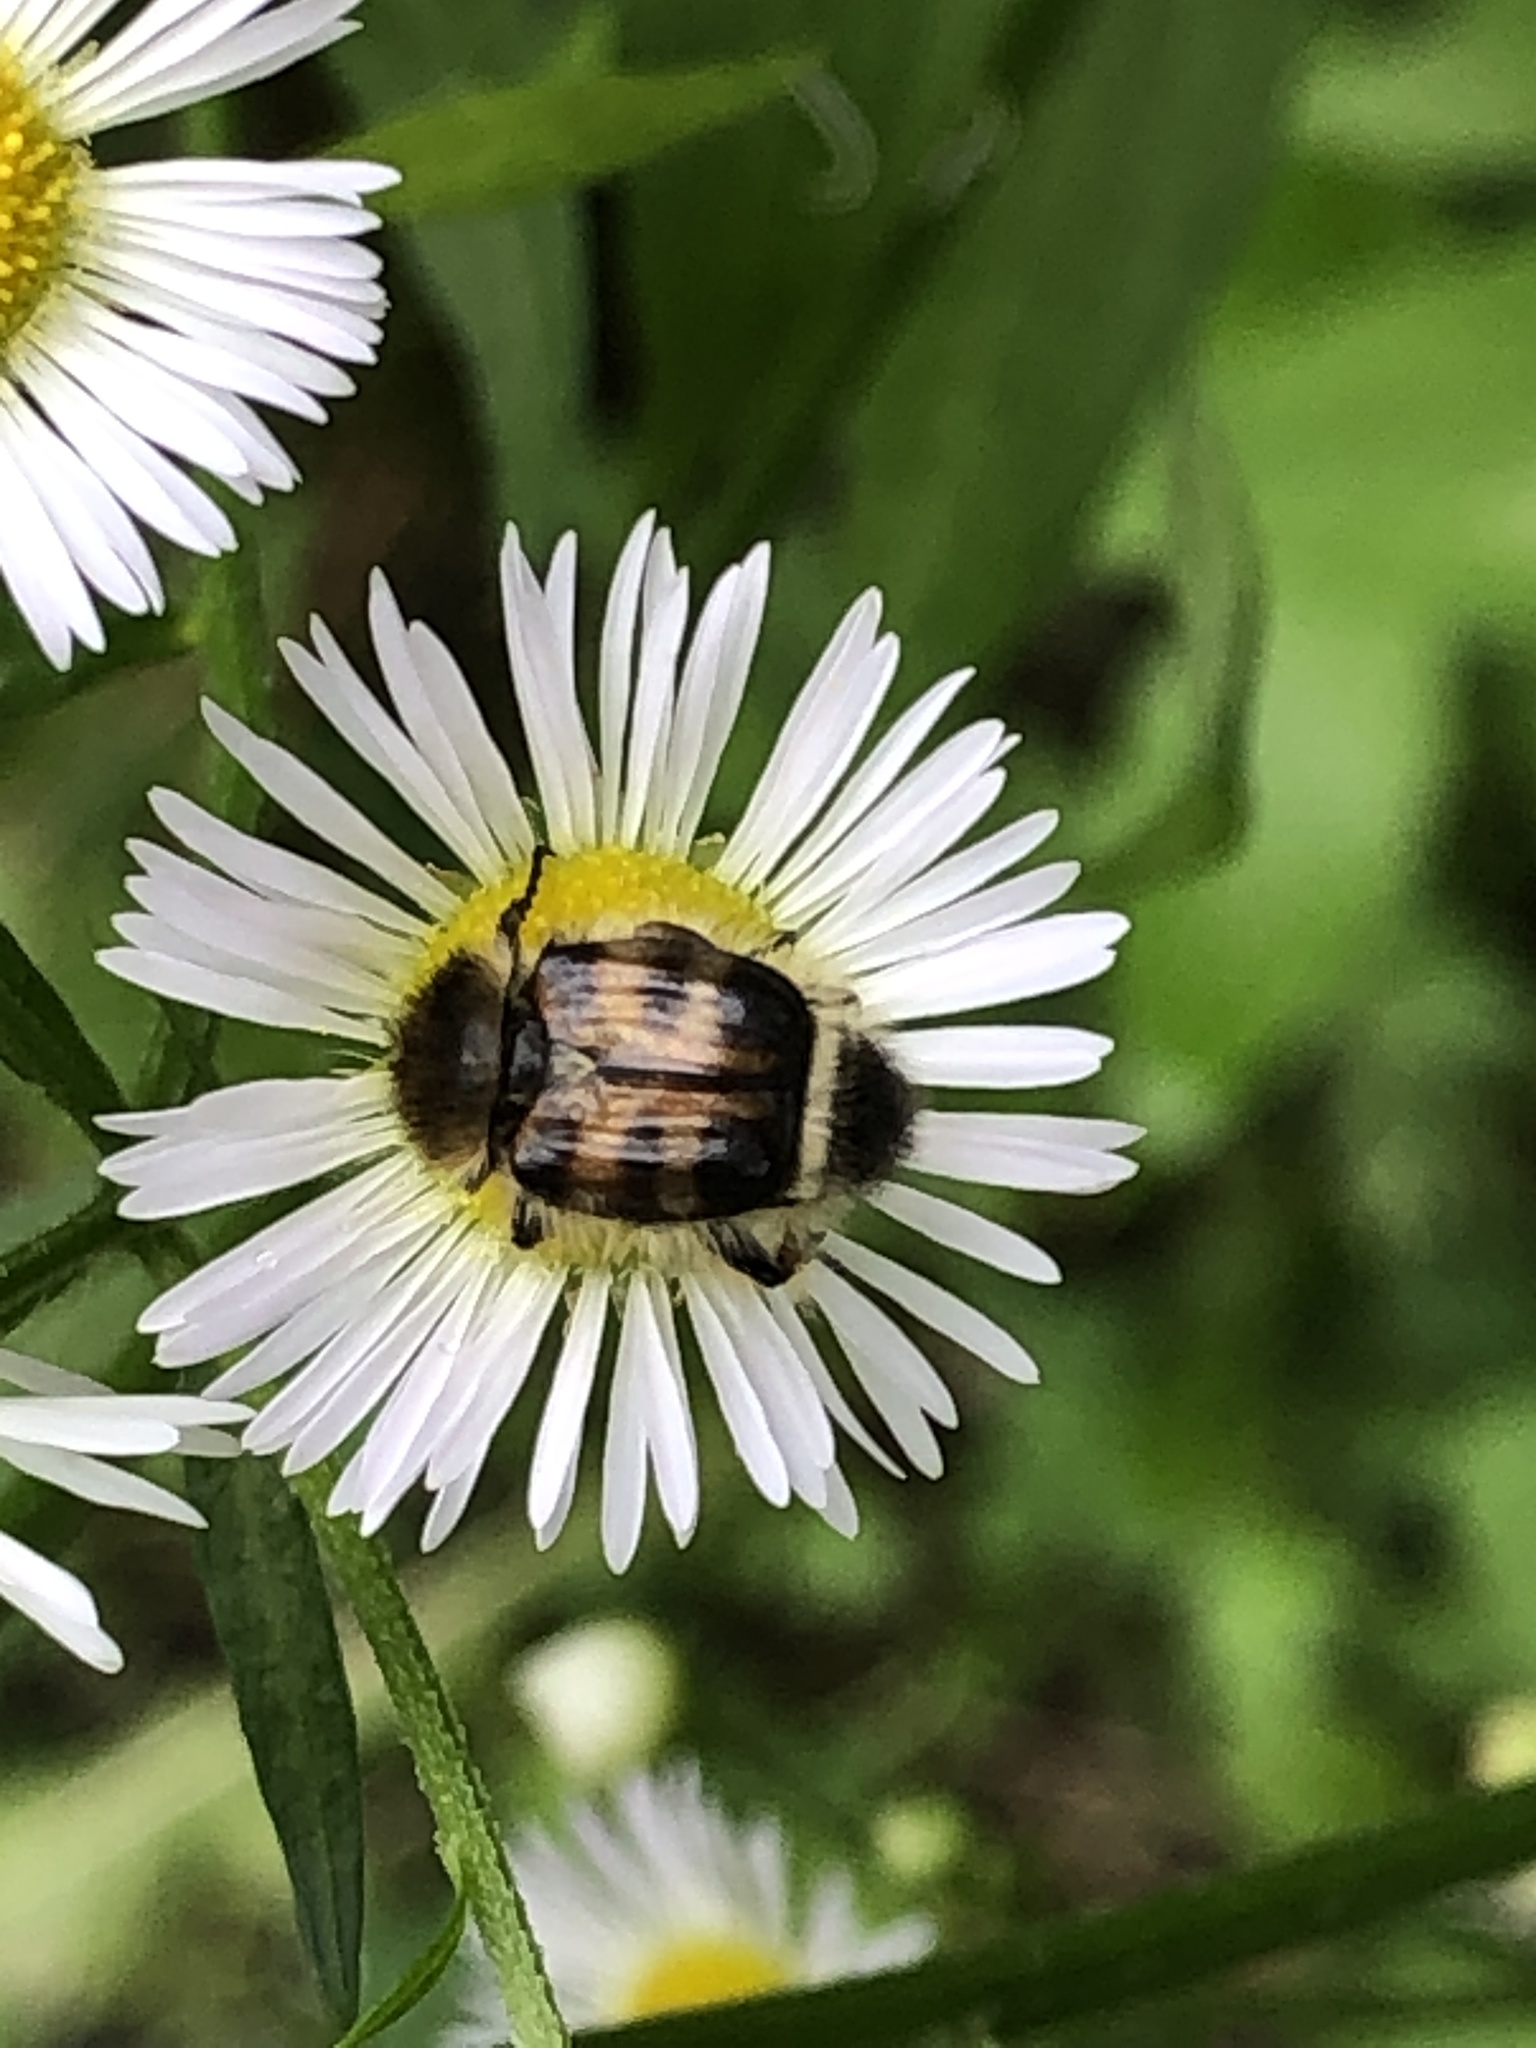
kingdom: Animalia
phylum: Arthropoda
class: Insecta
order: Coleoptera
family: Scarabaeidae
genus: Lasiotrichius
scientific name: Lasiotrichius succinctus
